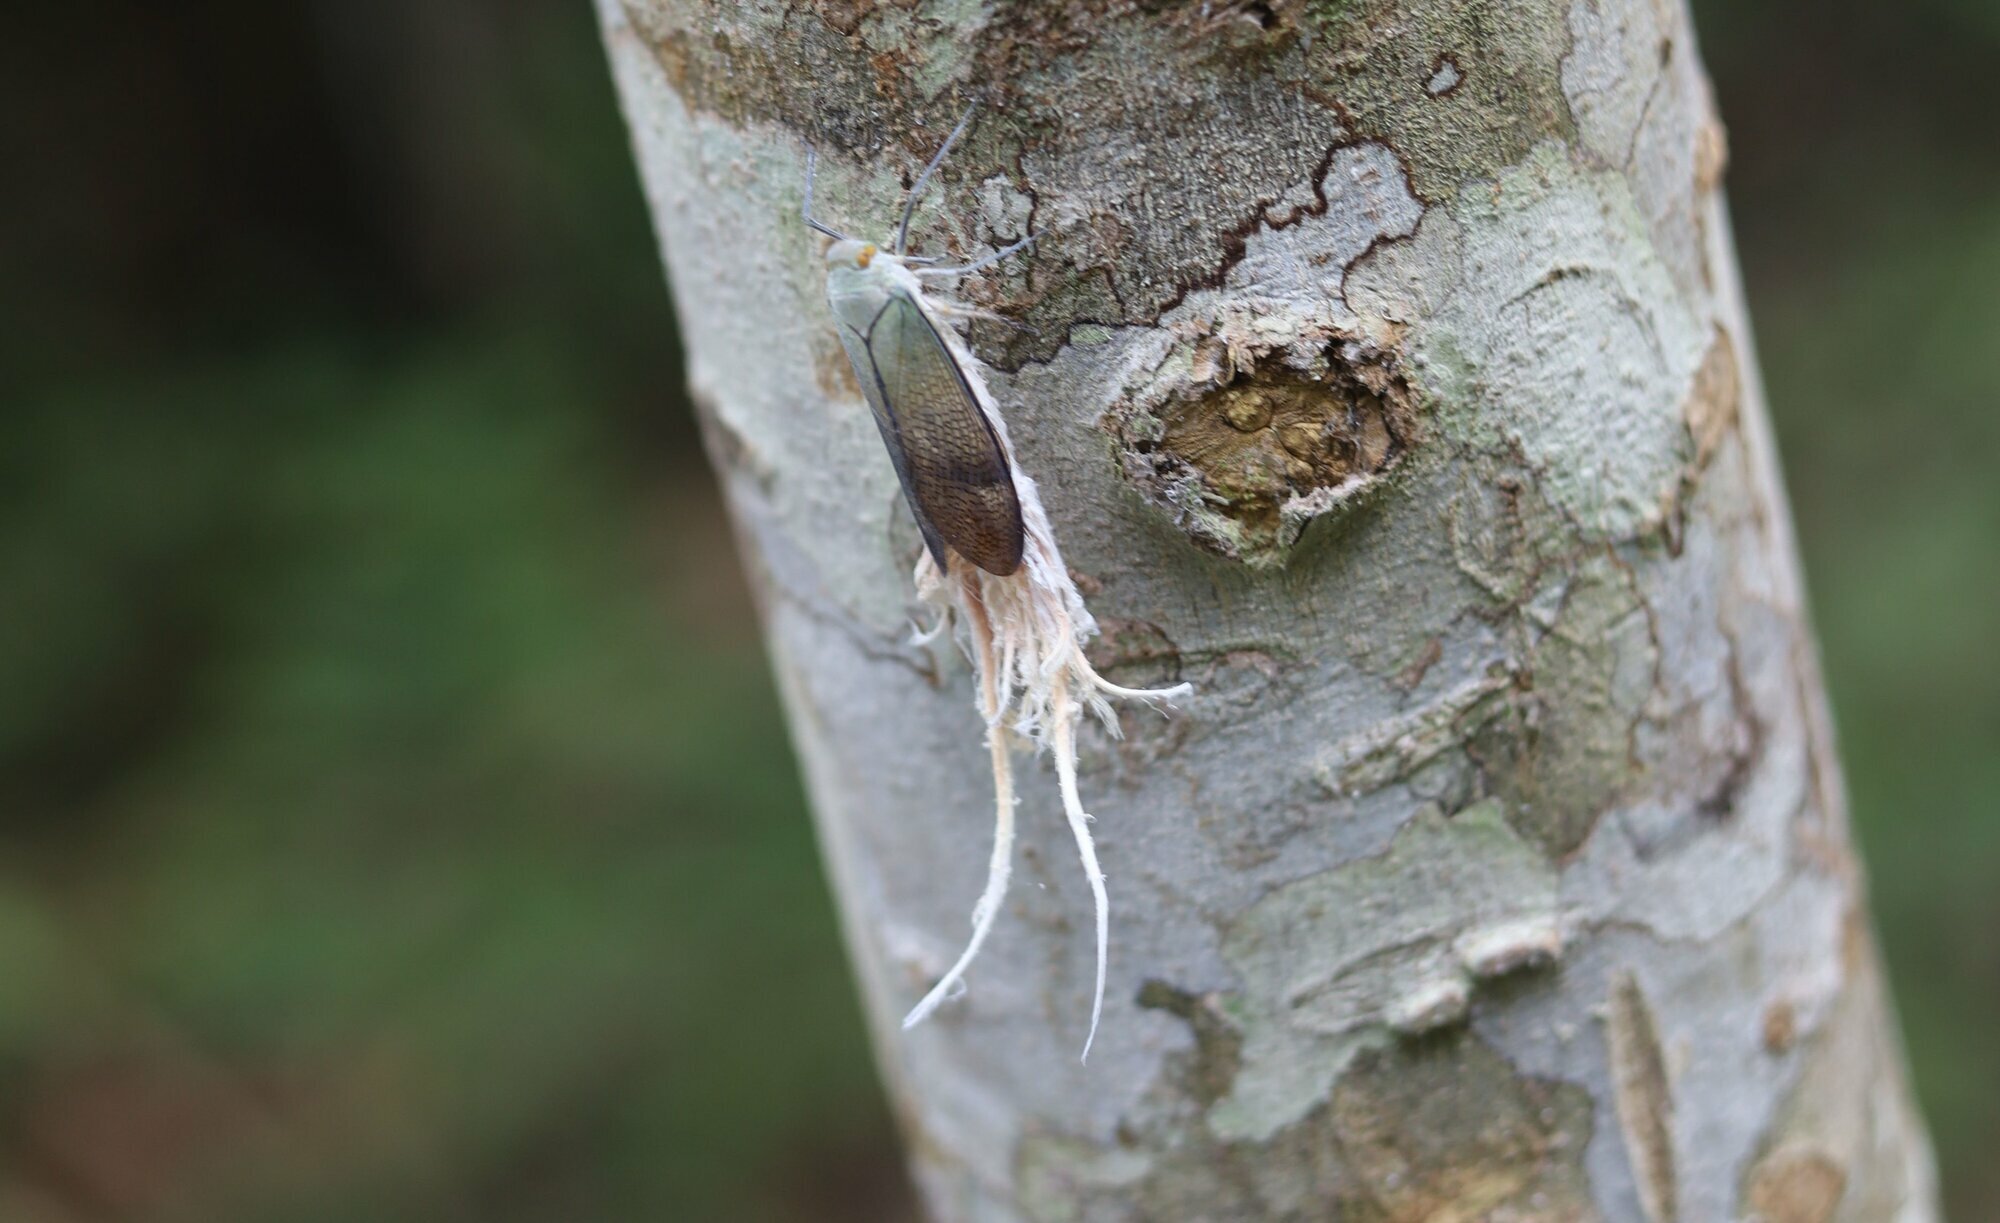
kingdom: Animalia
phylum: Arthropoda
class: Insecta
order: Hemiptera
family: Fulgoridae
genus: Pterodictya
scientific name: Pterodictya reticularis
